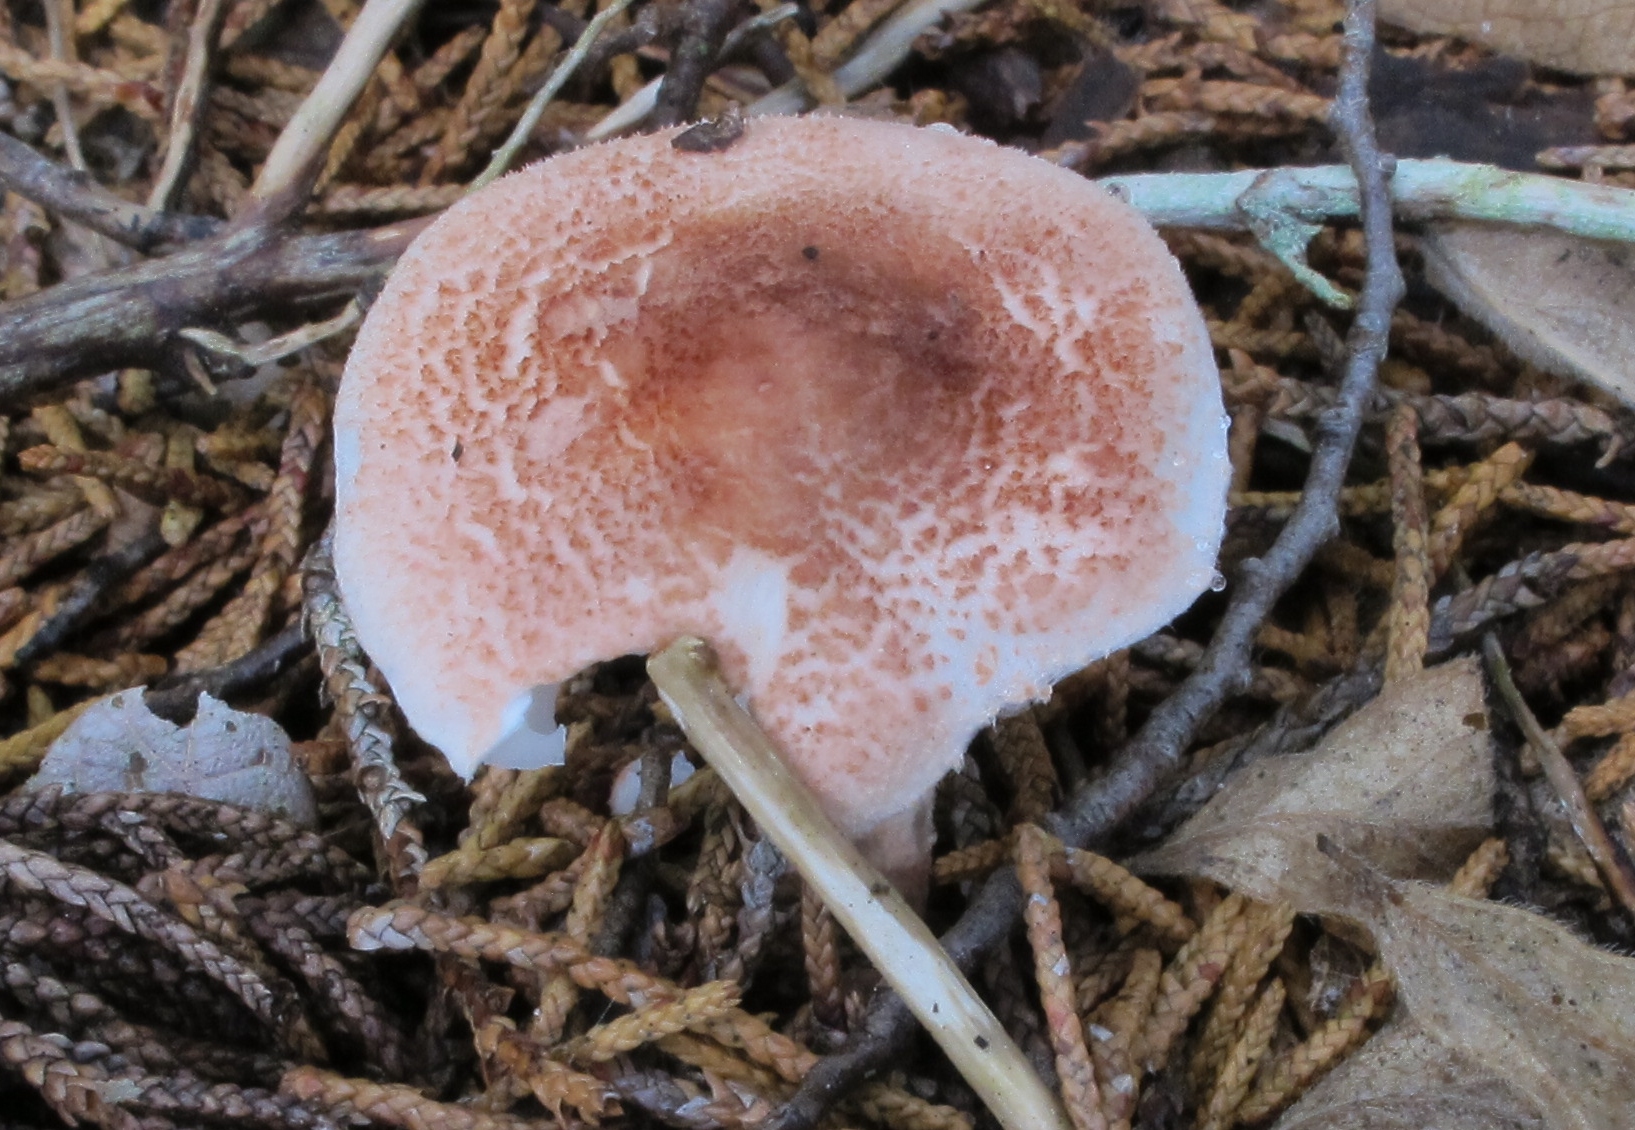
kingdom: Fungi
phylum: Basidiomycota
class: Agaricomycetes
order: Agaricales
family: Agaricaceae
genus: Lepiota
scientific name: Lepiota subincarnata
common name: Fatal dapperling
